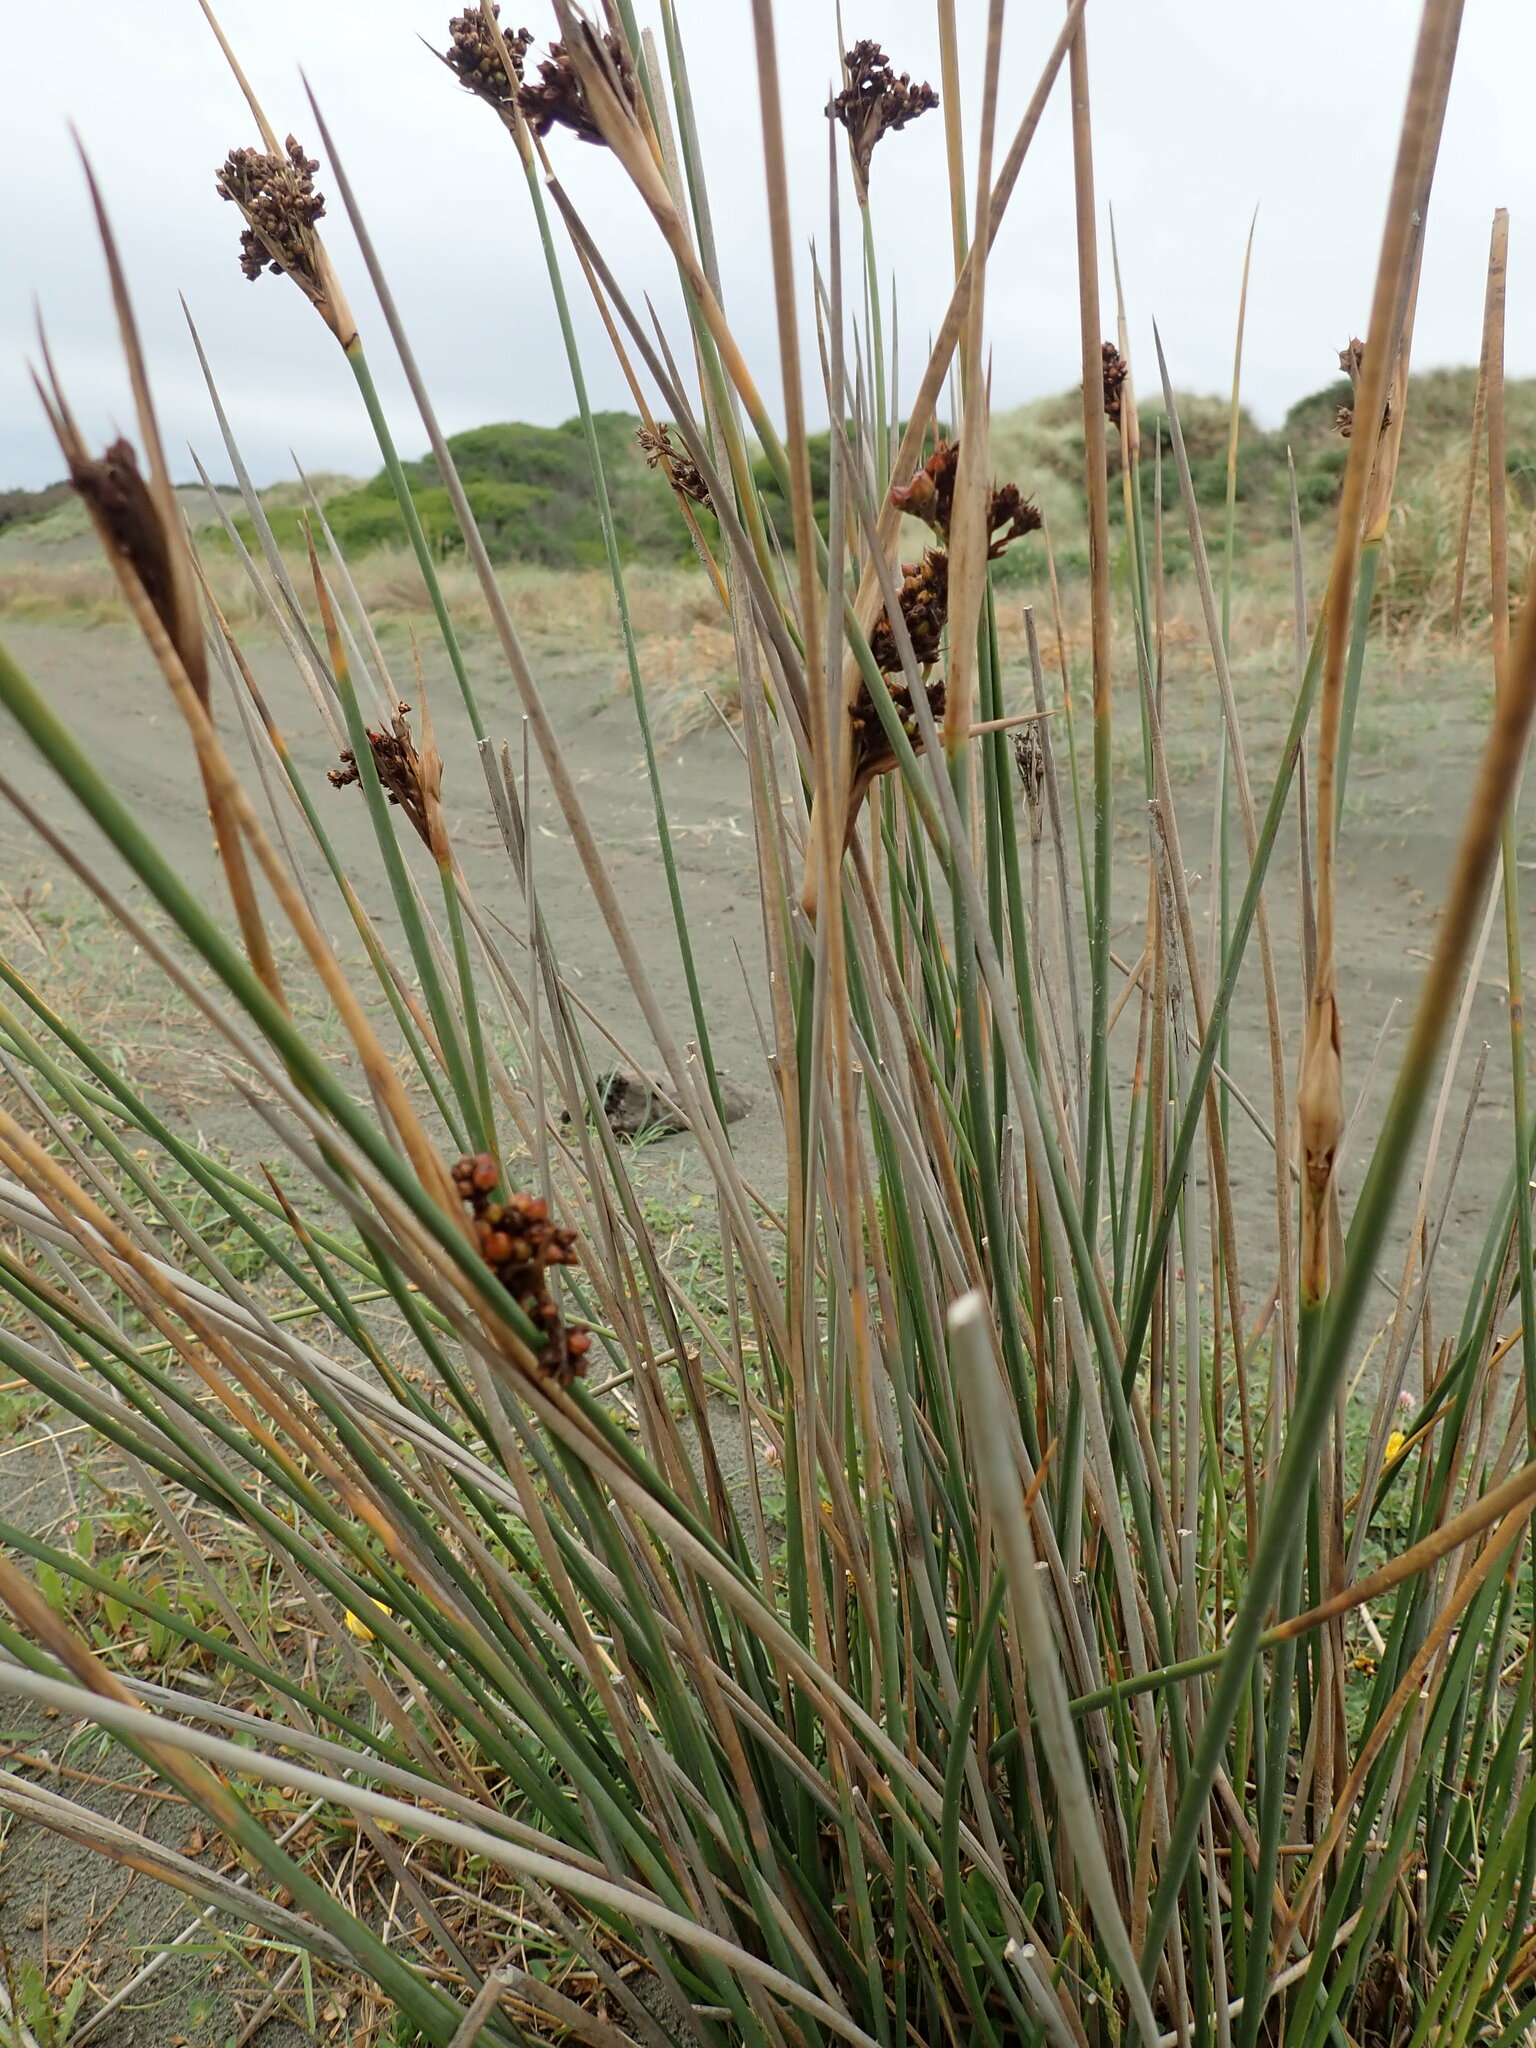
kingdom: Plantae
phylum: Tracheophyta
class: Liliopsida
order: Poales
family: Juncaceae
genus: Juncus
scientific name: Juncus acutus
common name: Sharp rush
